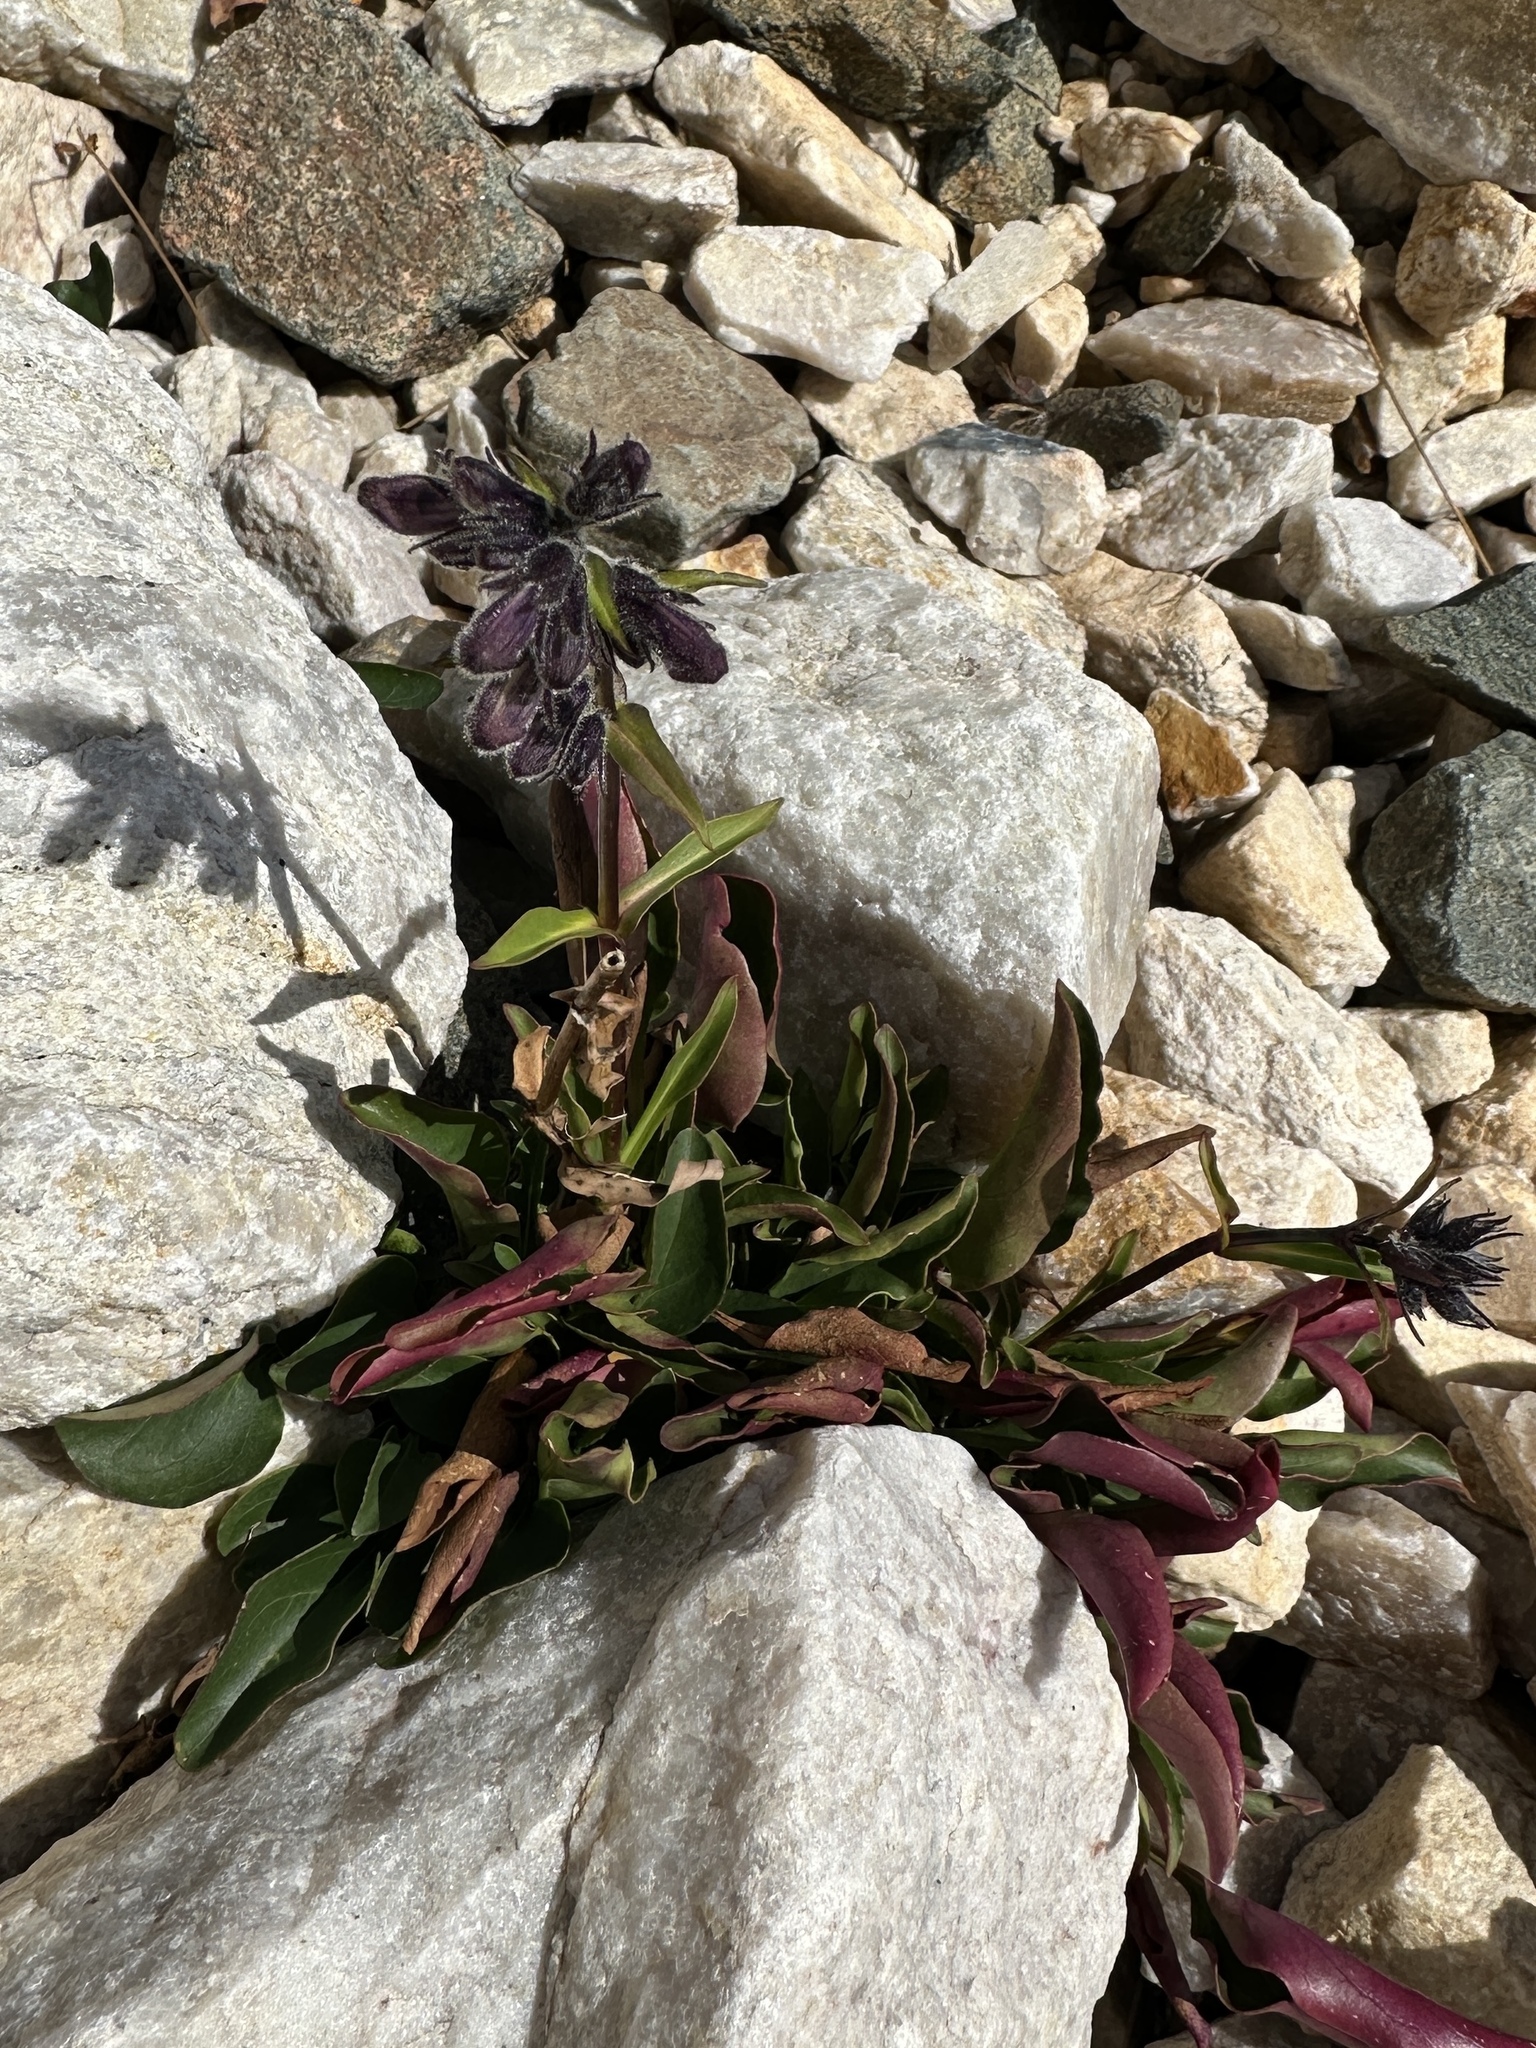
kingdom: Plantae
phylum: Tracheophyta
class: Magnoliopsida
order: Lamiales
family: Plantaginaceae
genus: Penstemon
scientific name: Penstemon whippleanus
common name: Whipple's penstemon
